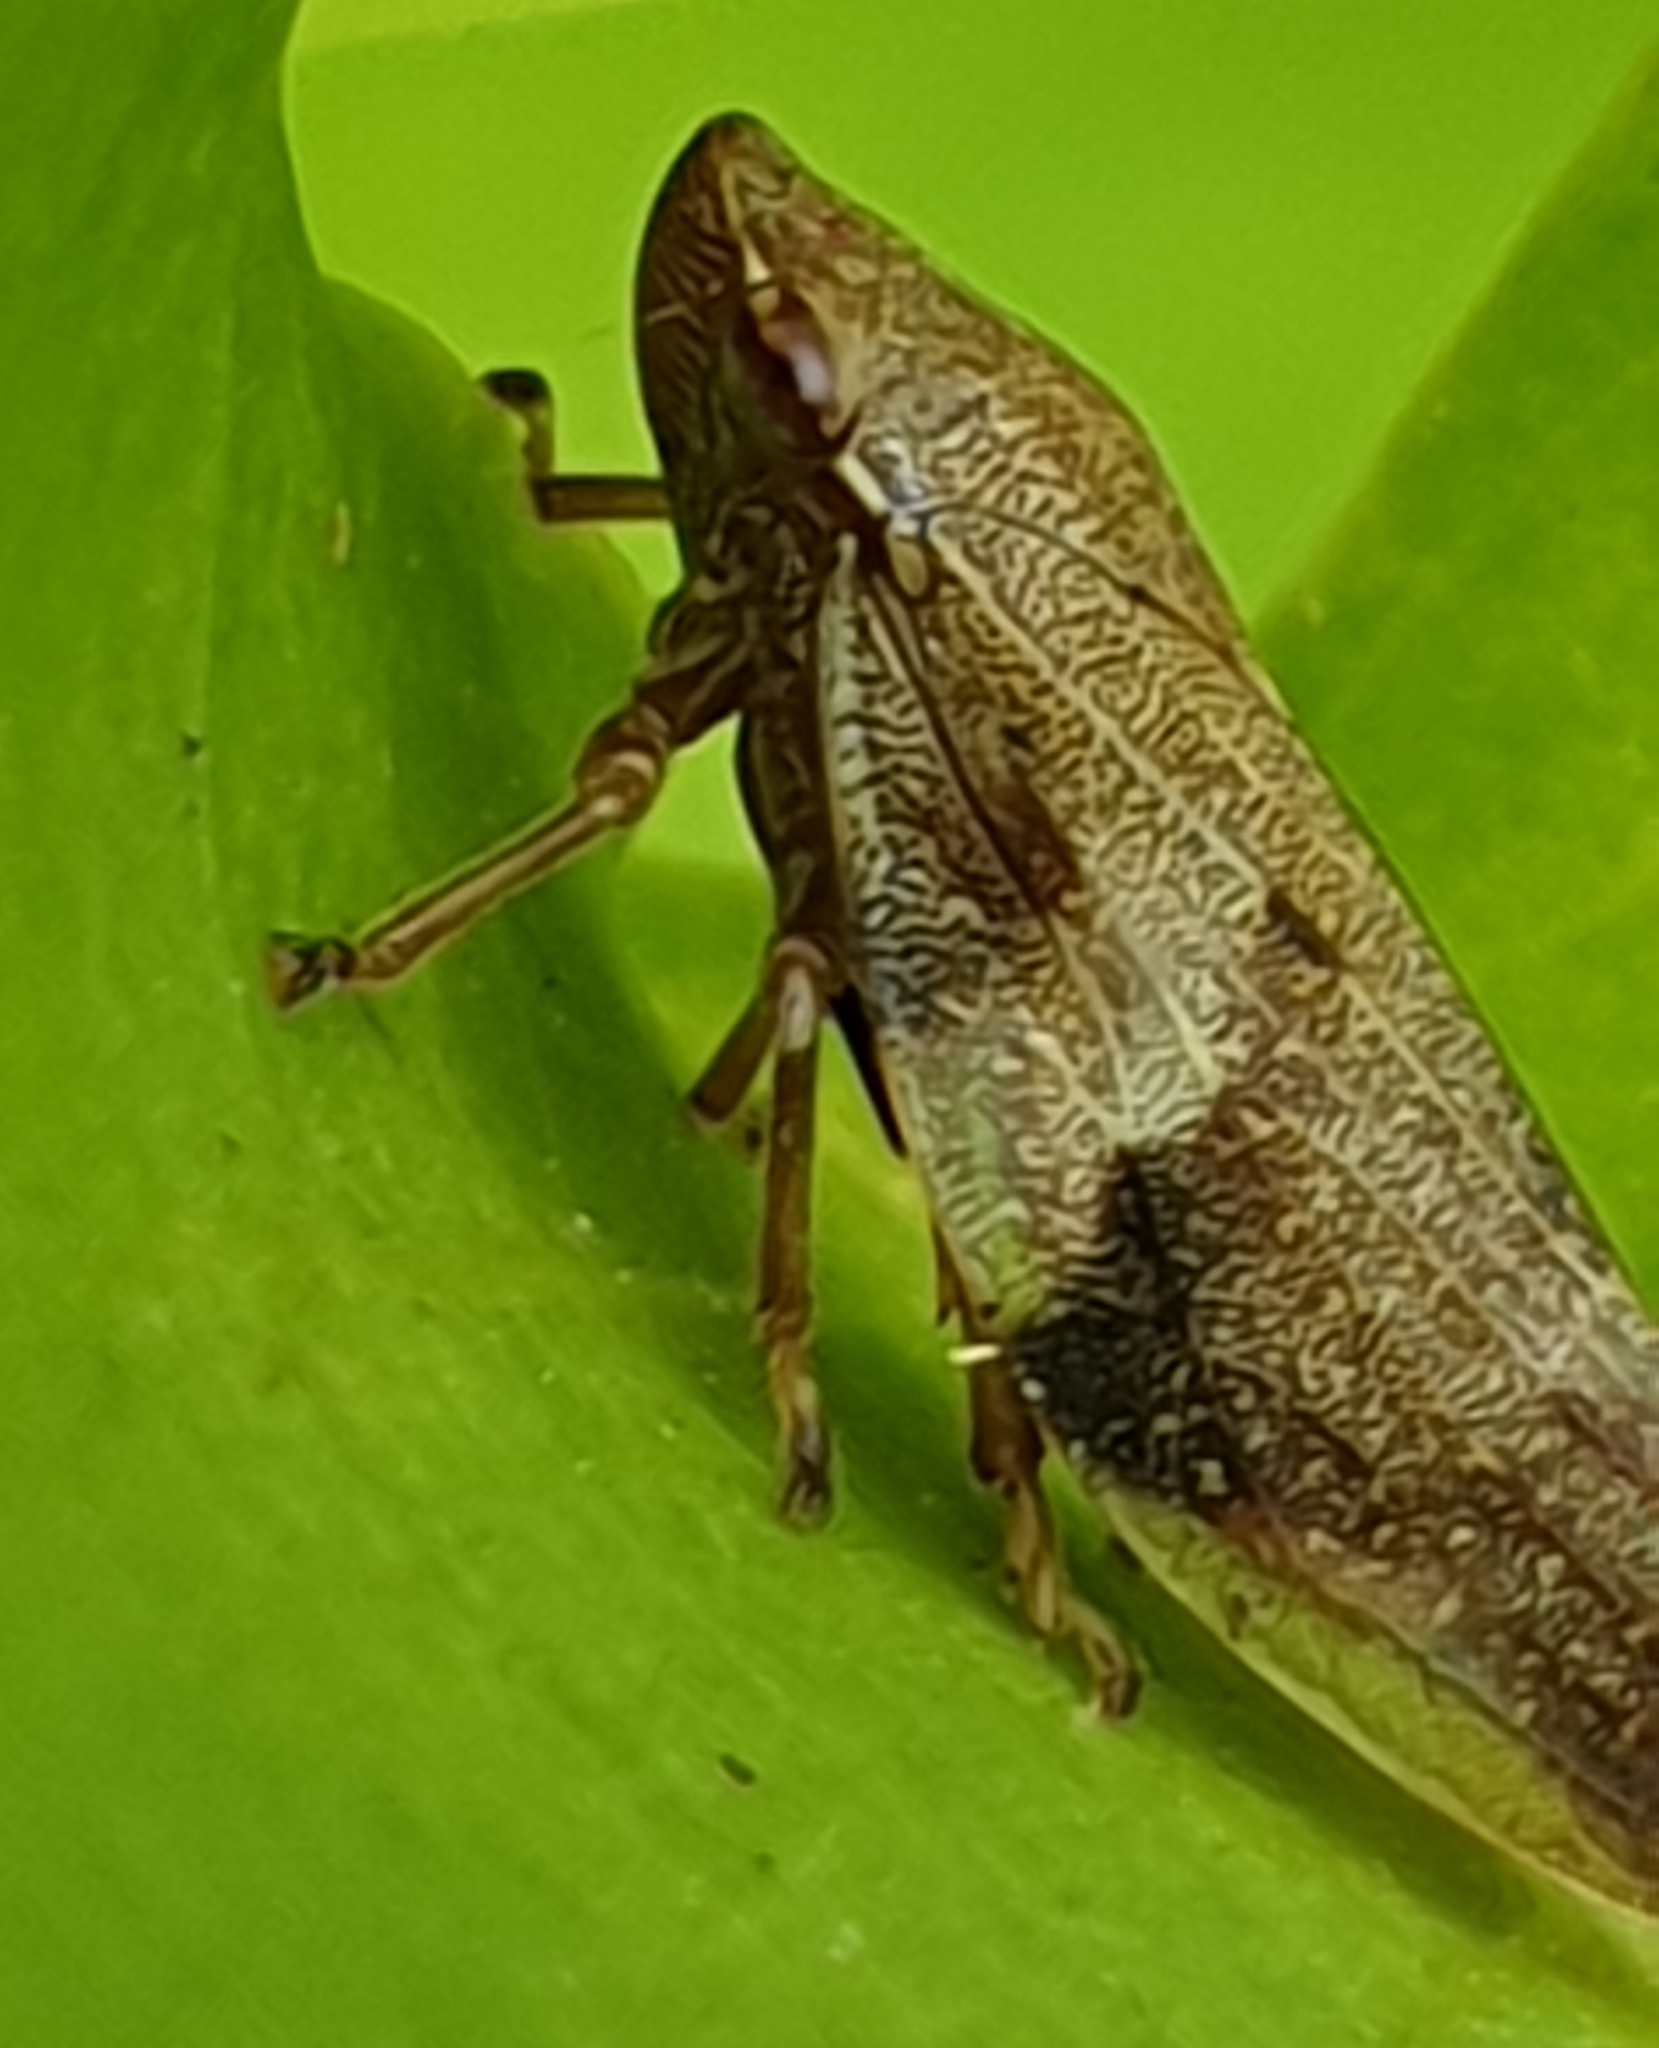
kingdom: Animalia
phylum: Arthropoda
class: Insecta
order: Hemiptera
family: Aphrophoridae
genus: Aphrophora
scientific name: Aphrophora alni
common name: European alder spittlebug
